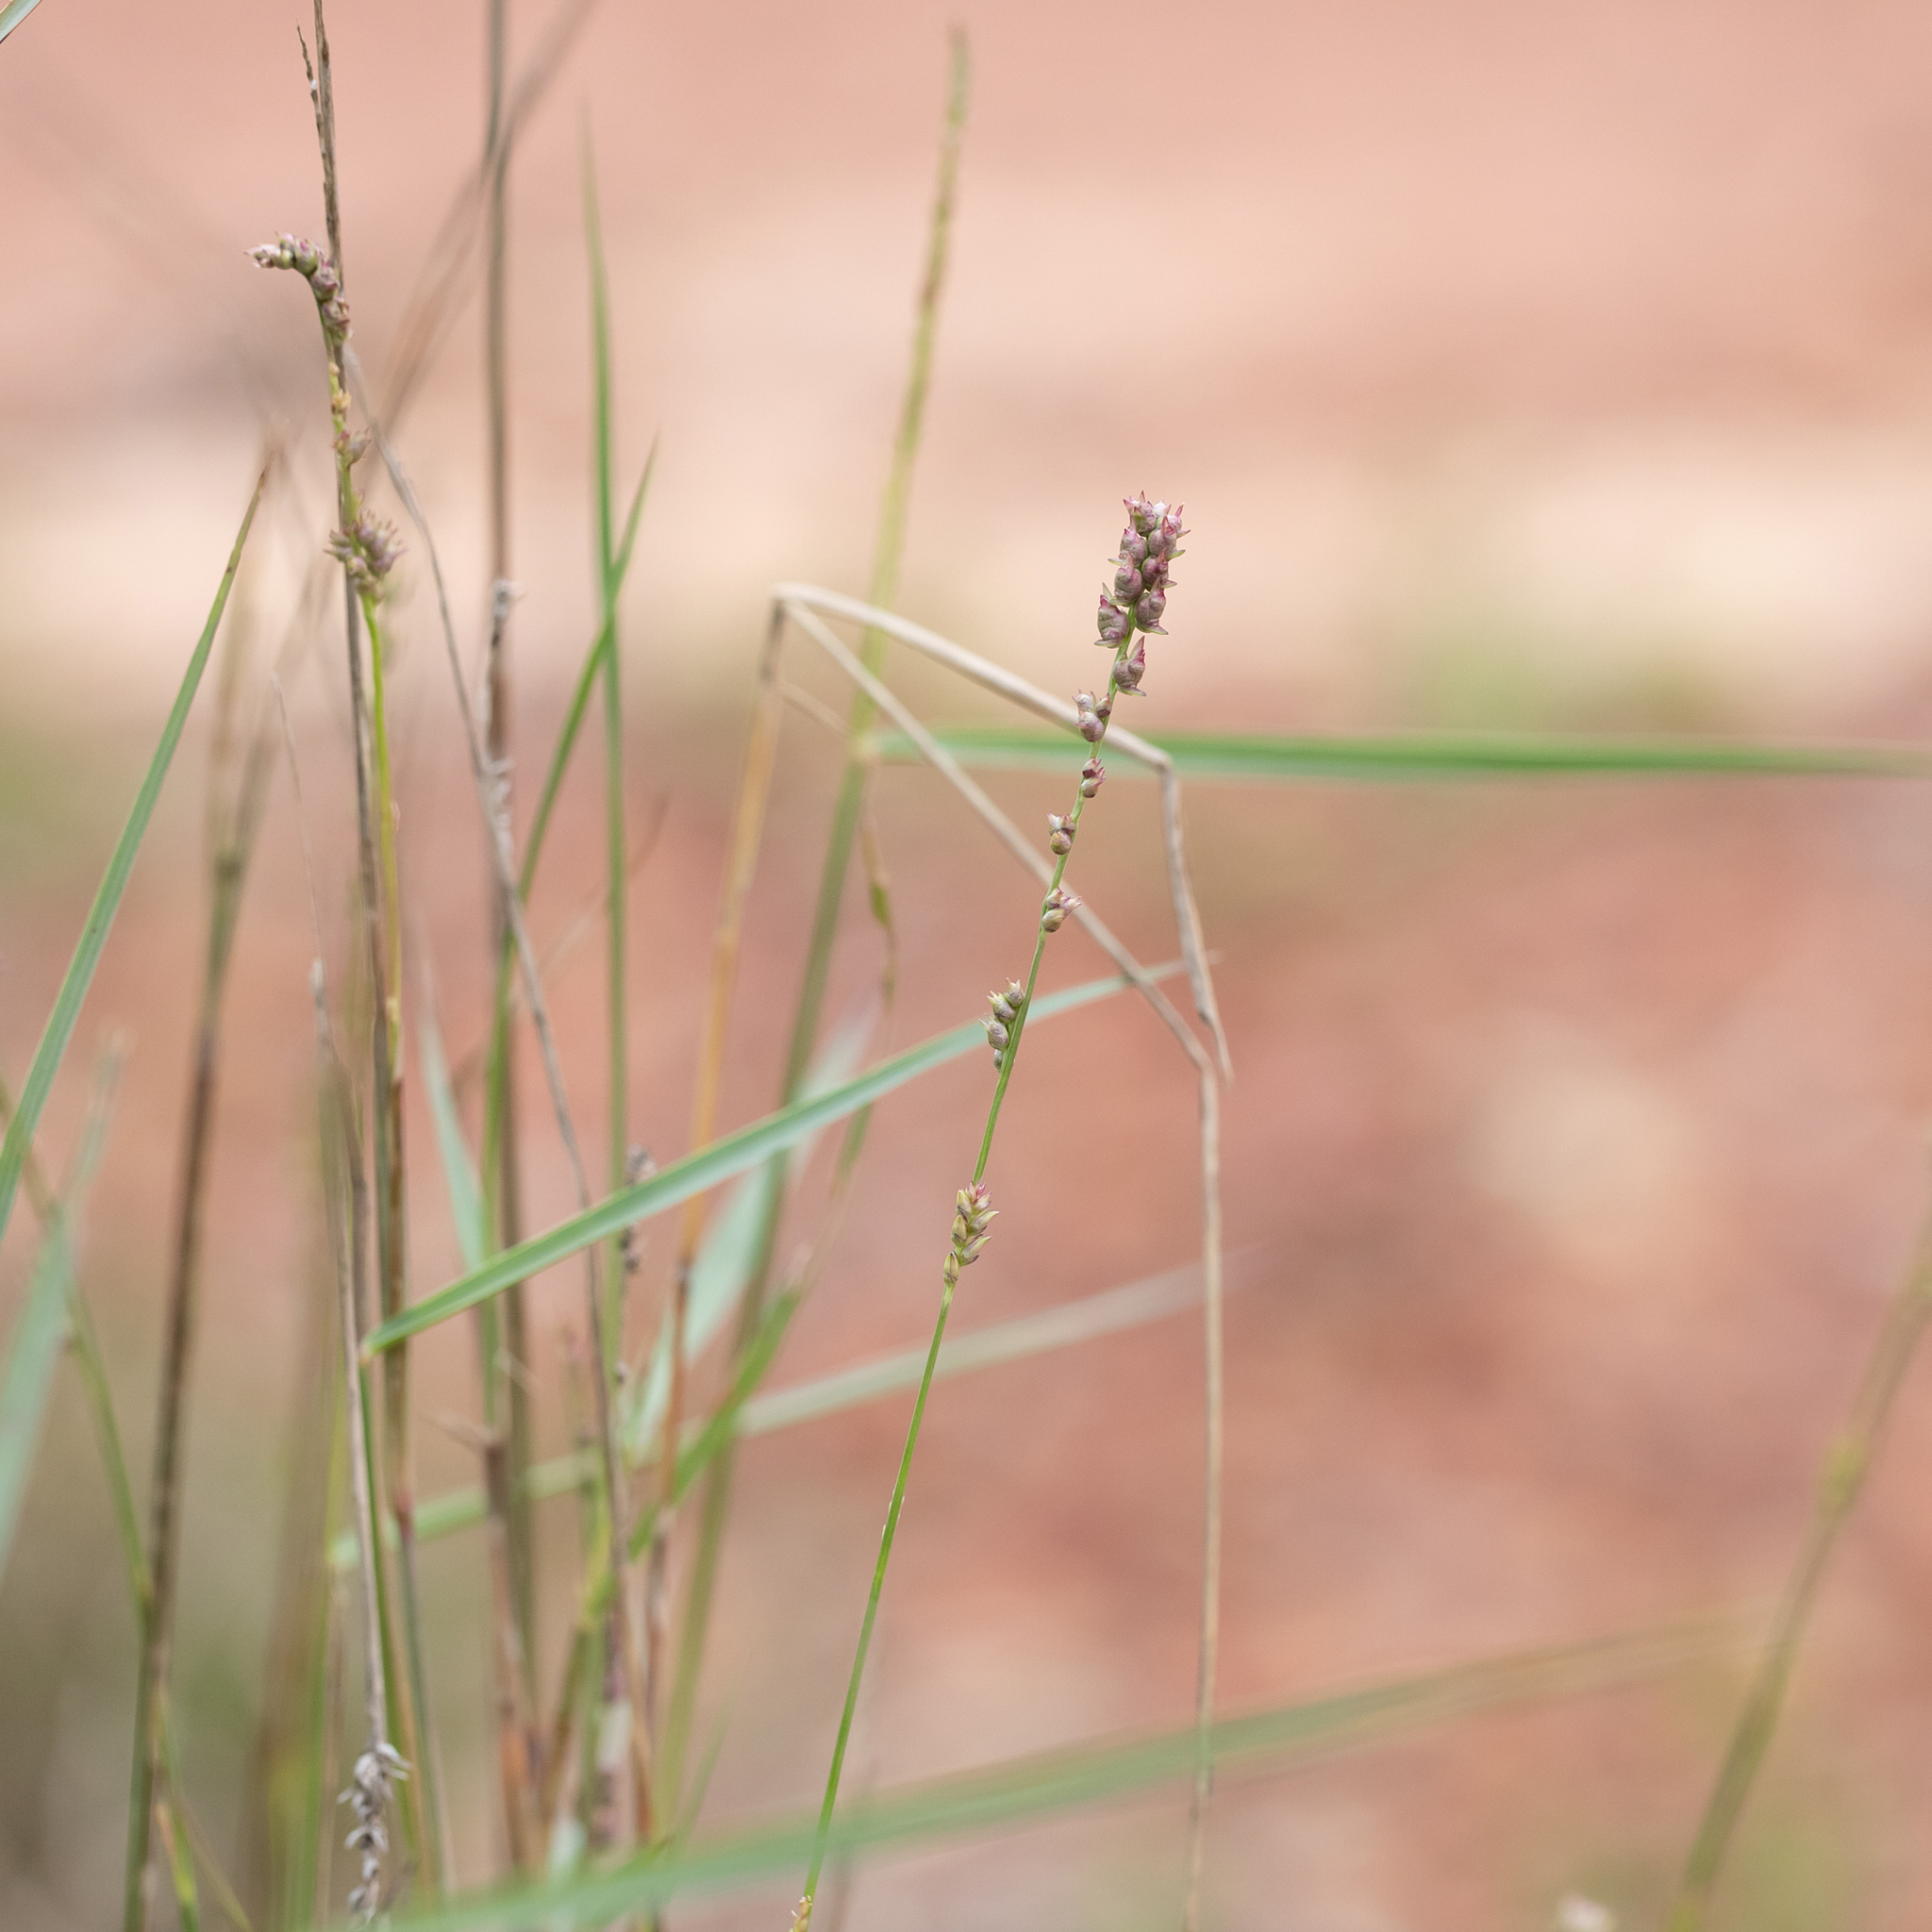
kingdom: Plantae
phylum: Tracheophyta
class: Liliopsida
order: Poales
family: Poaceae
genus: Setaria
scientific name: Setaria globoidea
